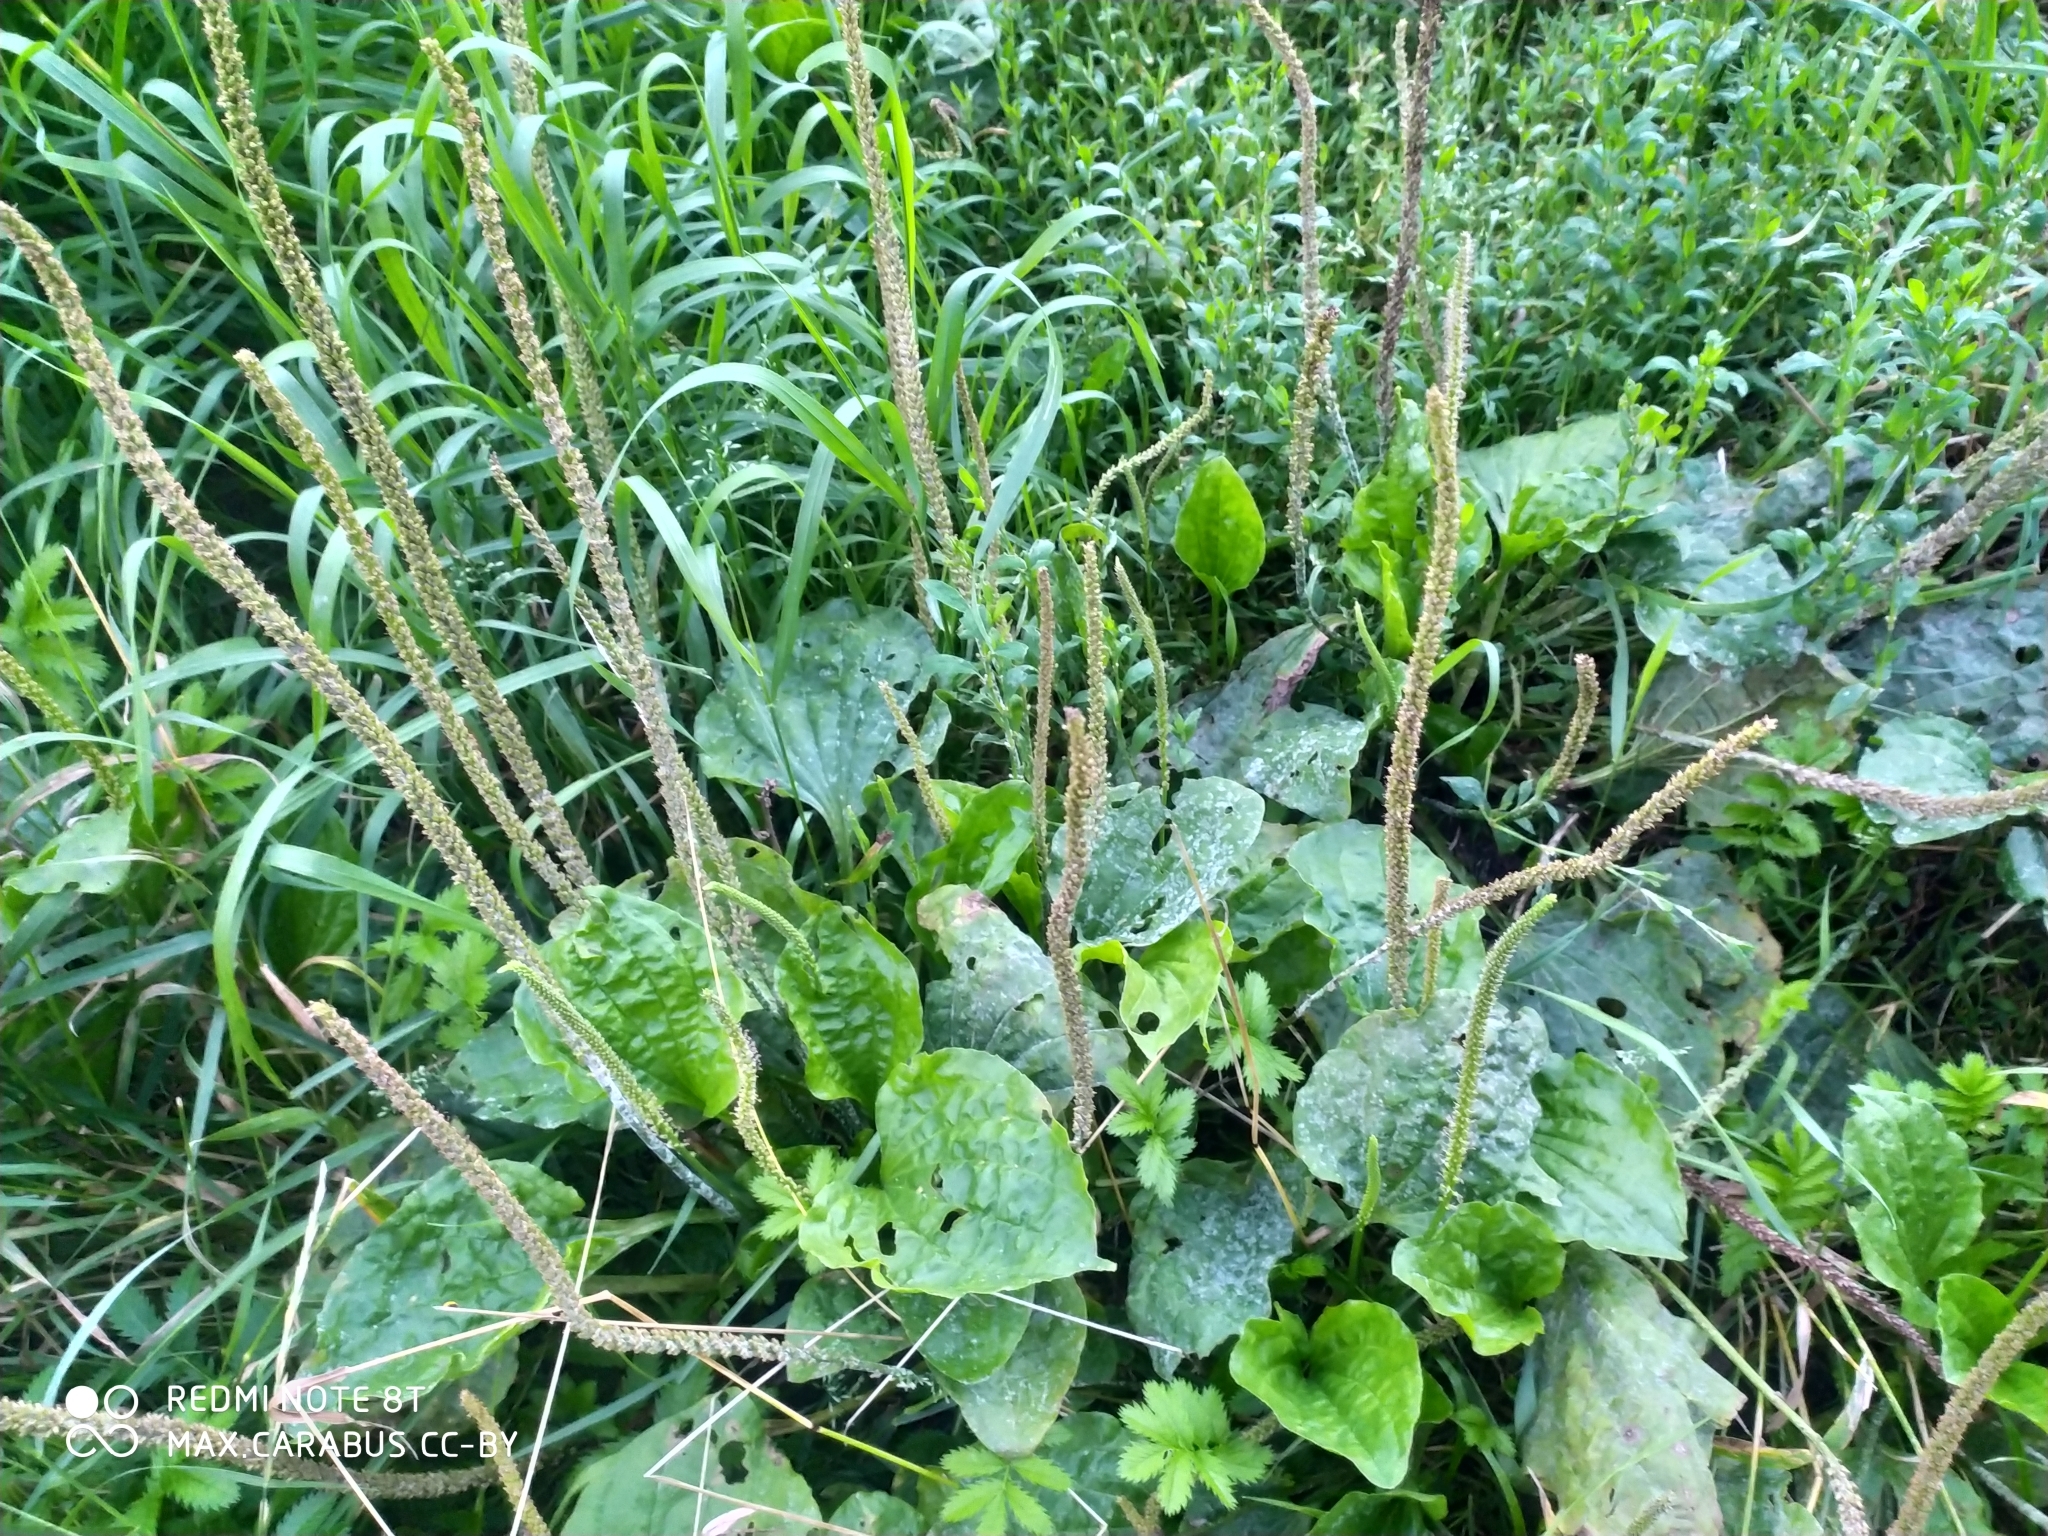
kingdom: Plantae
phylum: Tracheophyta
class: Magnoliopsida
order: Lamiales
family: Plantaginaceae
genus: Plantago
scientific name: Plantago major
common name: Common plantain
